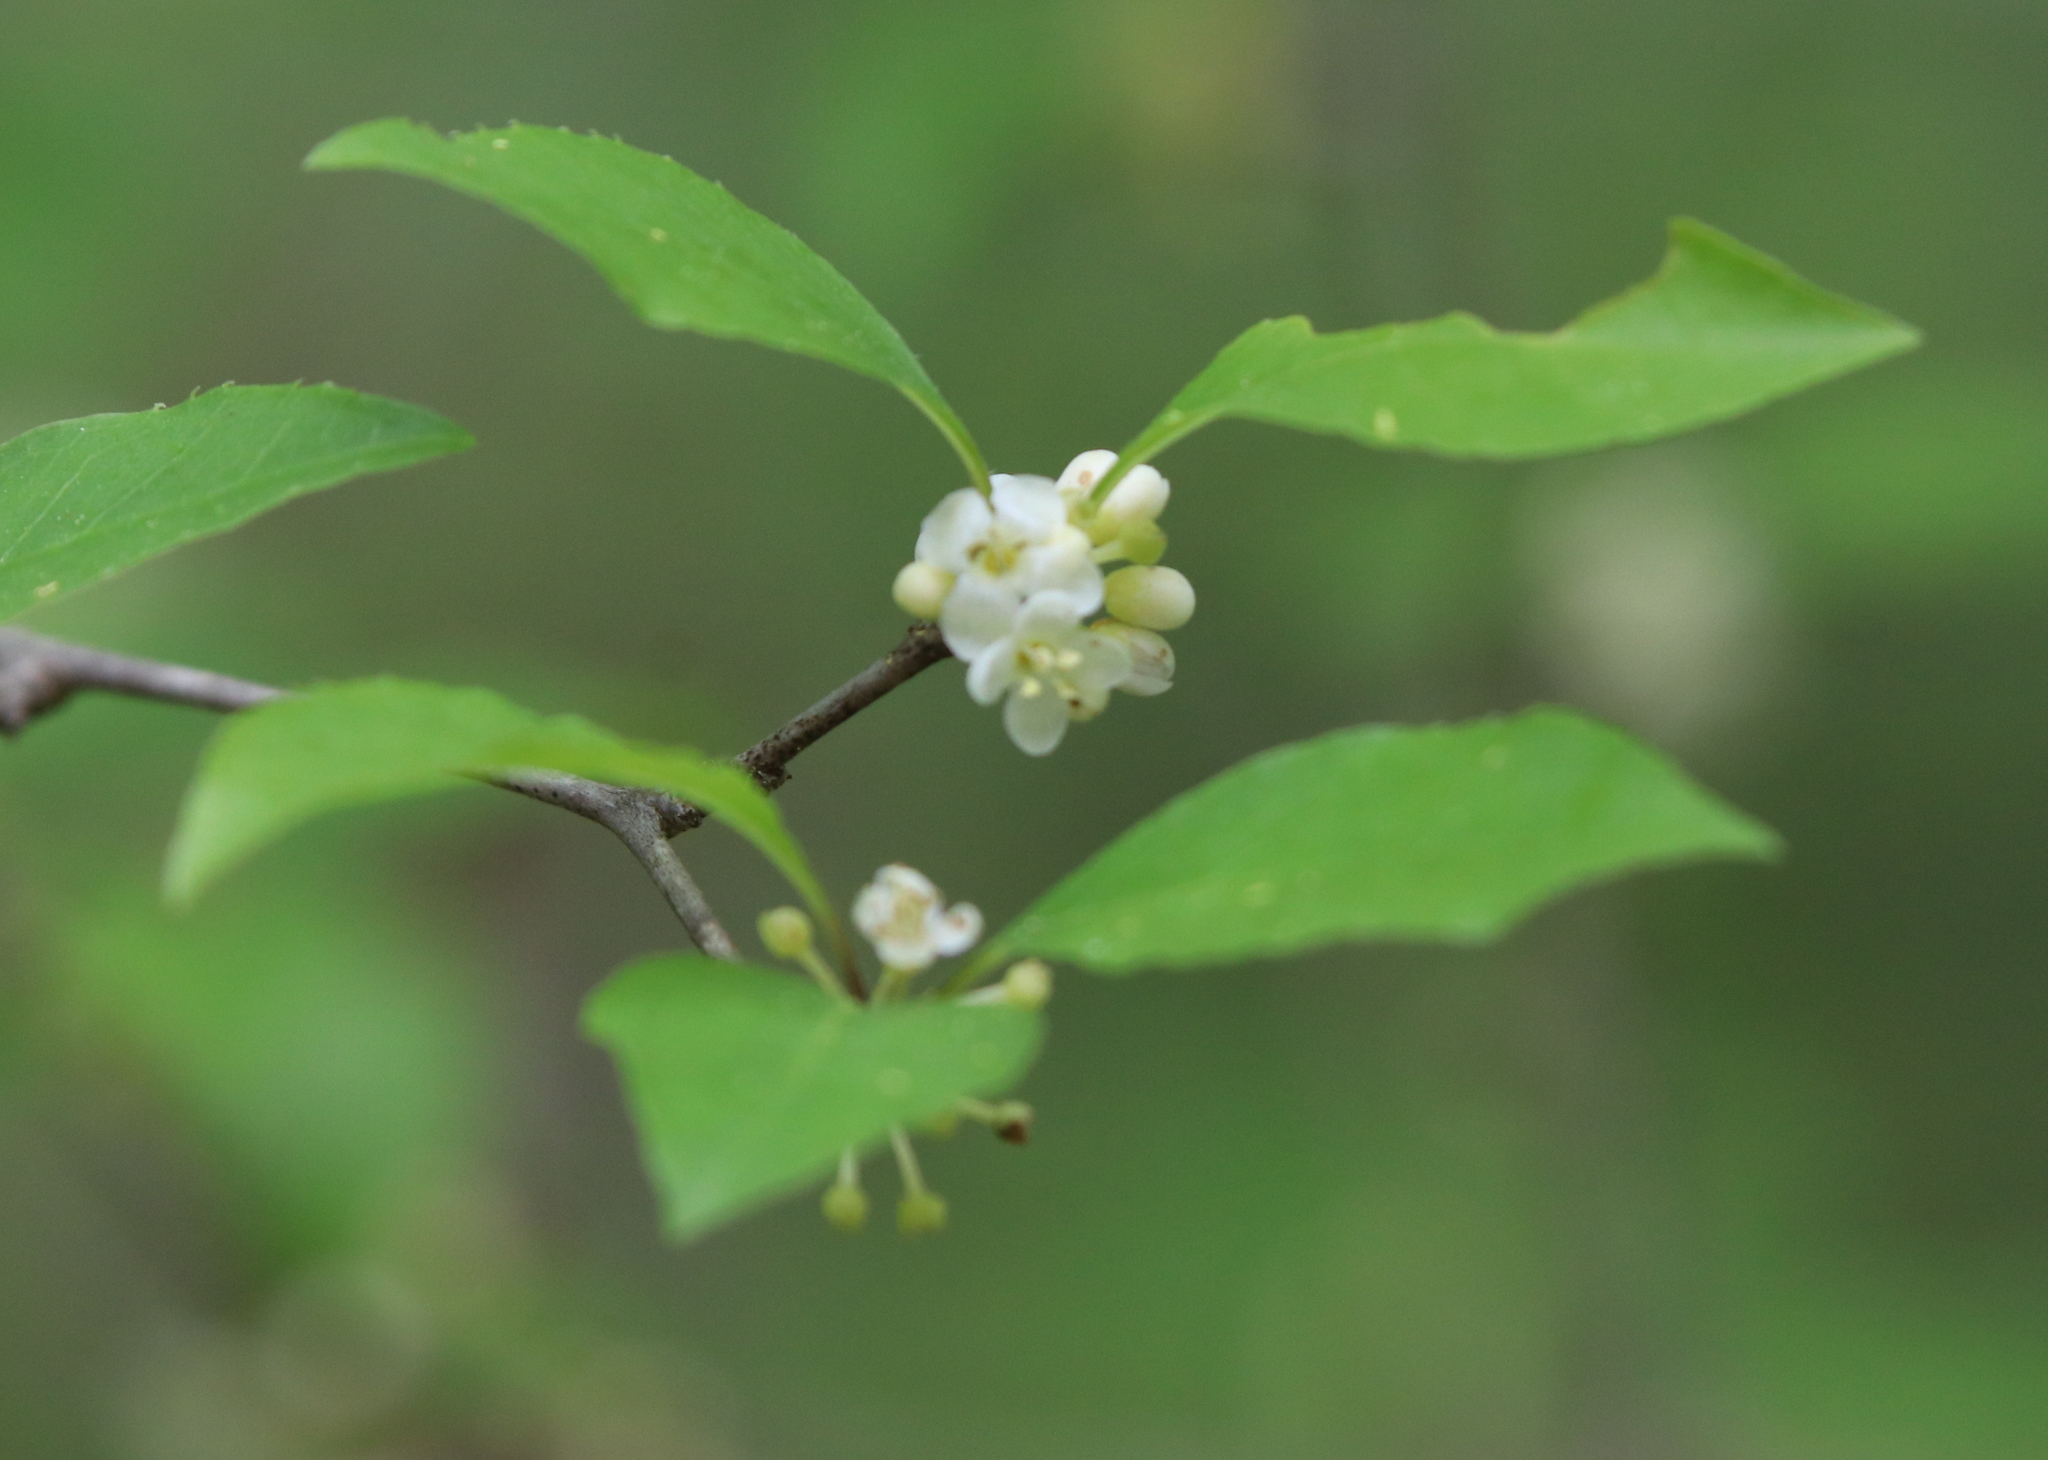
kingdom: Plantae
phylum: Tracheophyta
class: Magnoliopsida
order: Aquifoliales
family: Aquifoliaceae
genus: Ilex
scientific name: Ilex decidua
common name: Possum-haw
